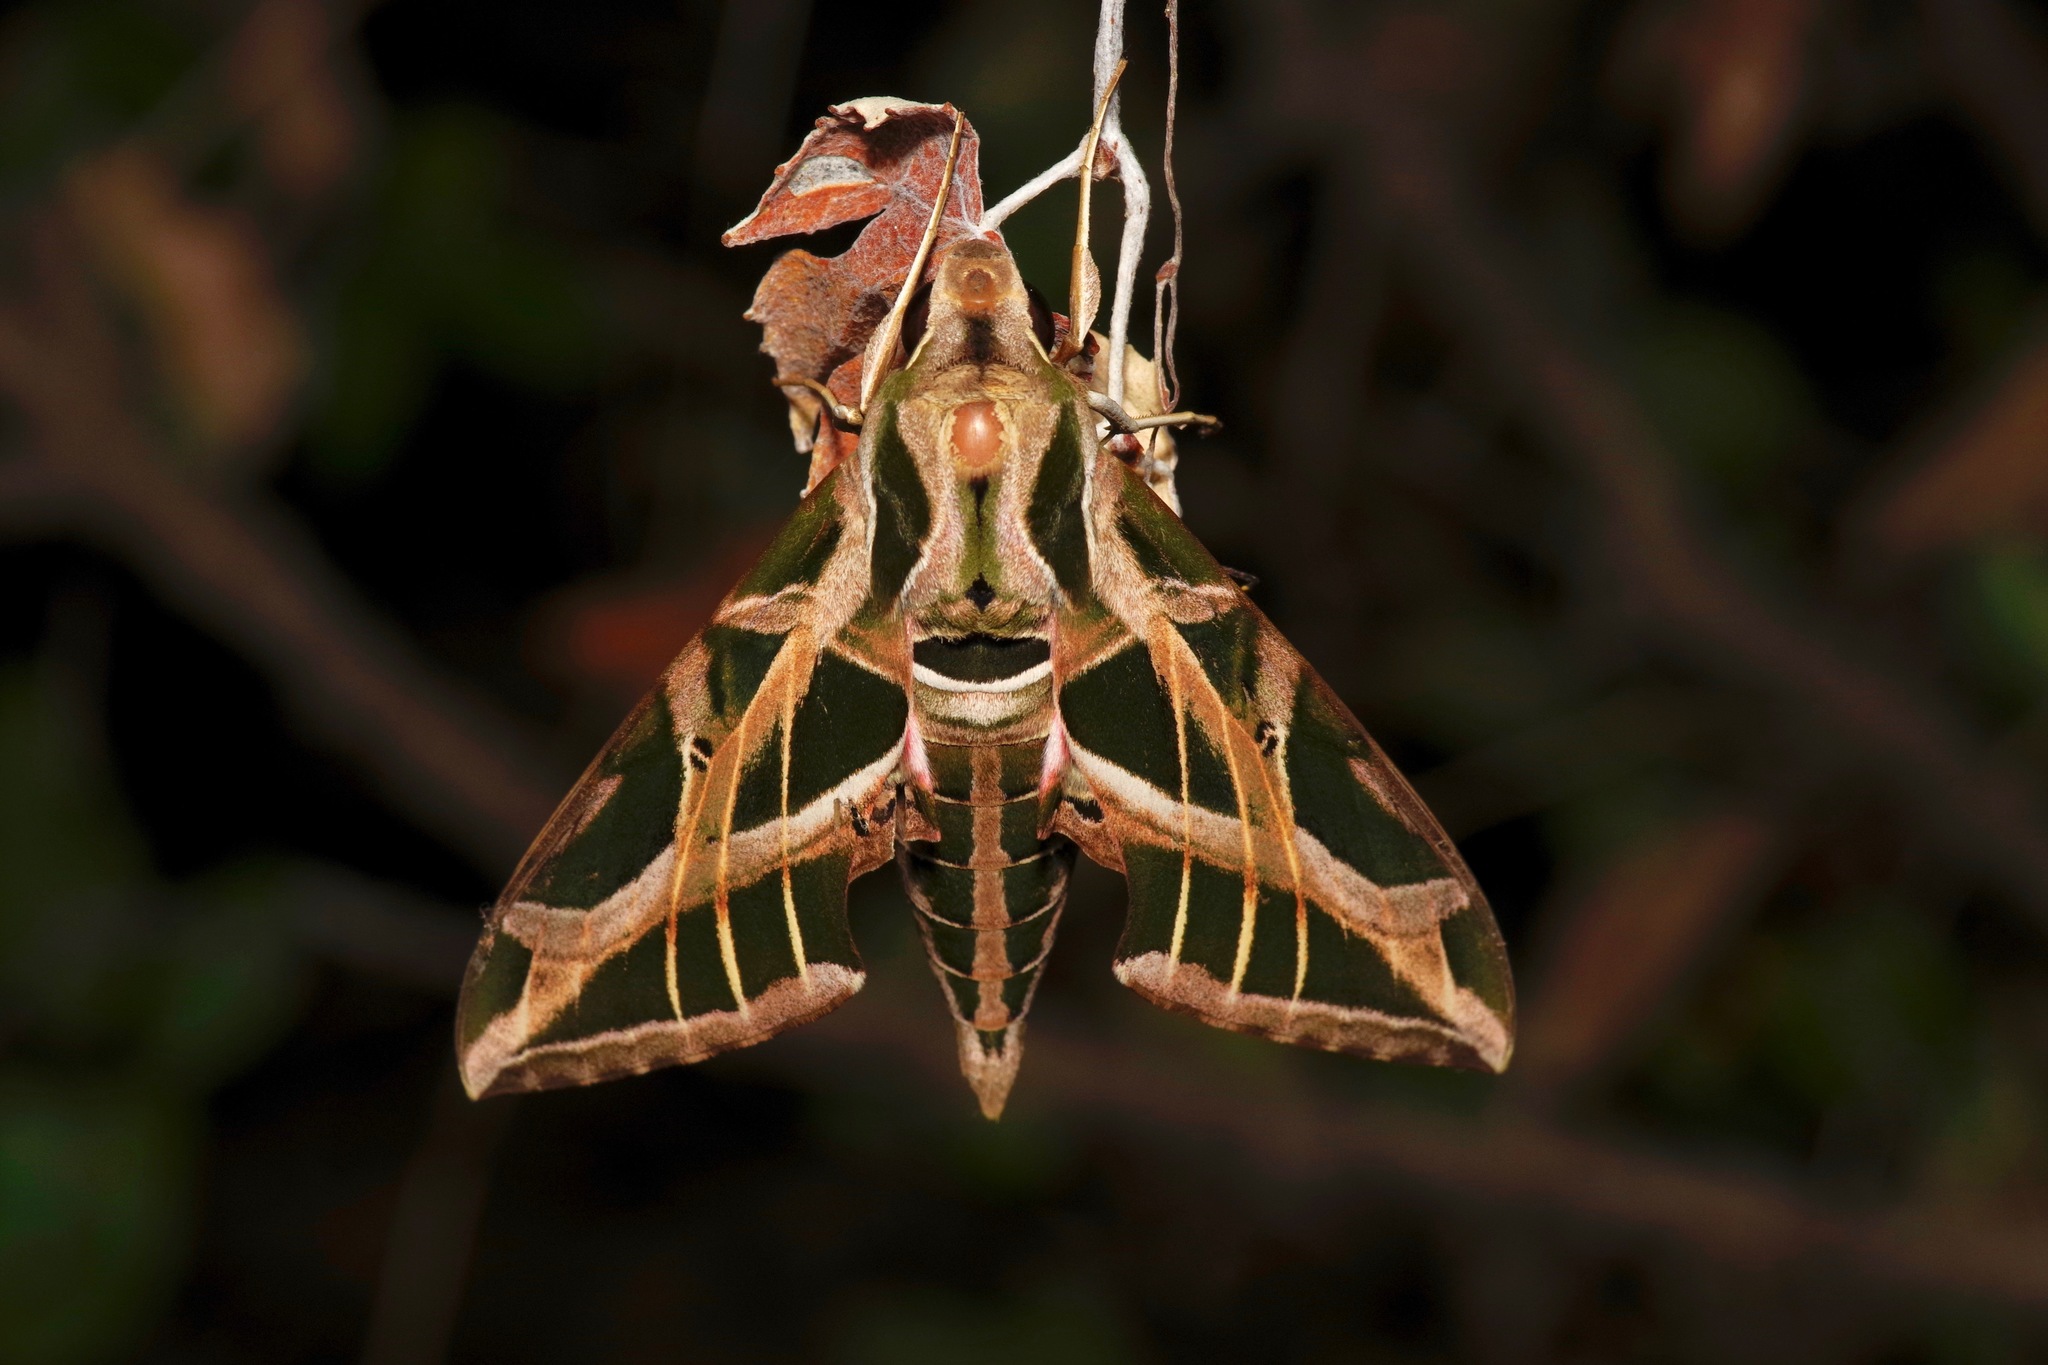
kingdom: Animalia
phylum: Arthropoda
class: Insecta
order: Lepidoptera
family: Sphingidae
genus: Eumorpha
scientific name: Eumorpha vitis
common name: Vine sphinx
